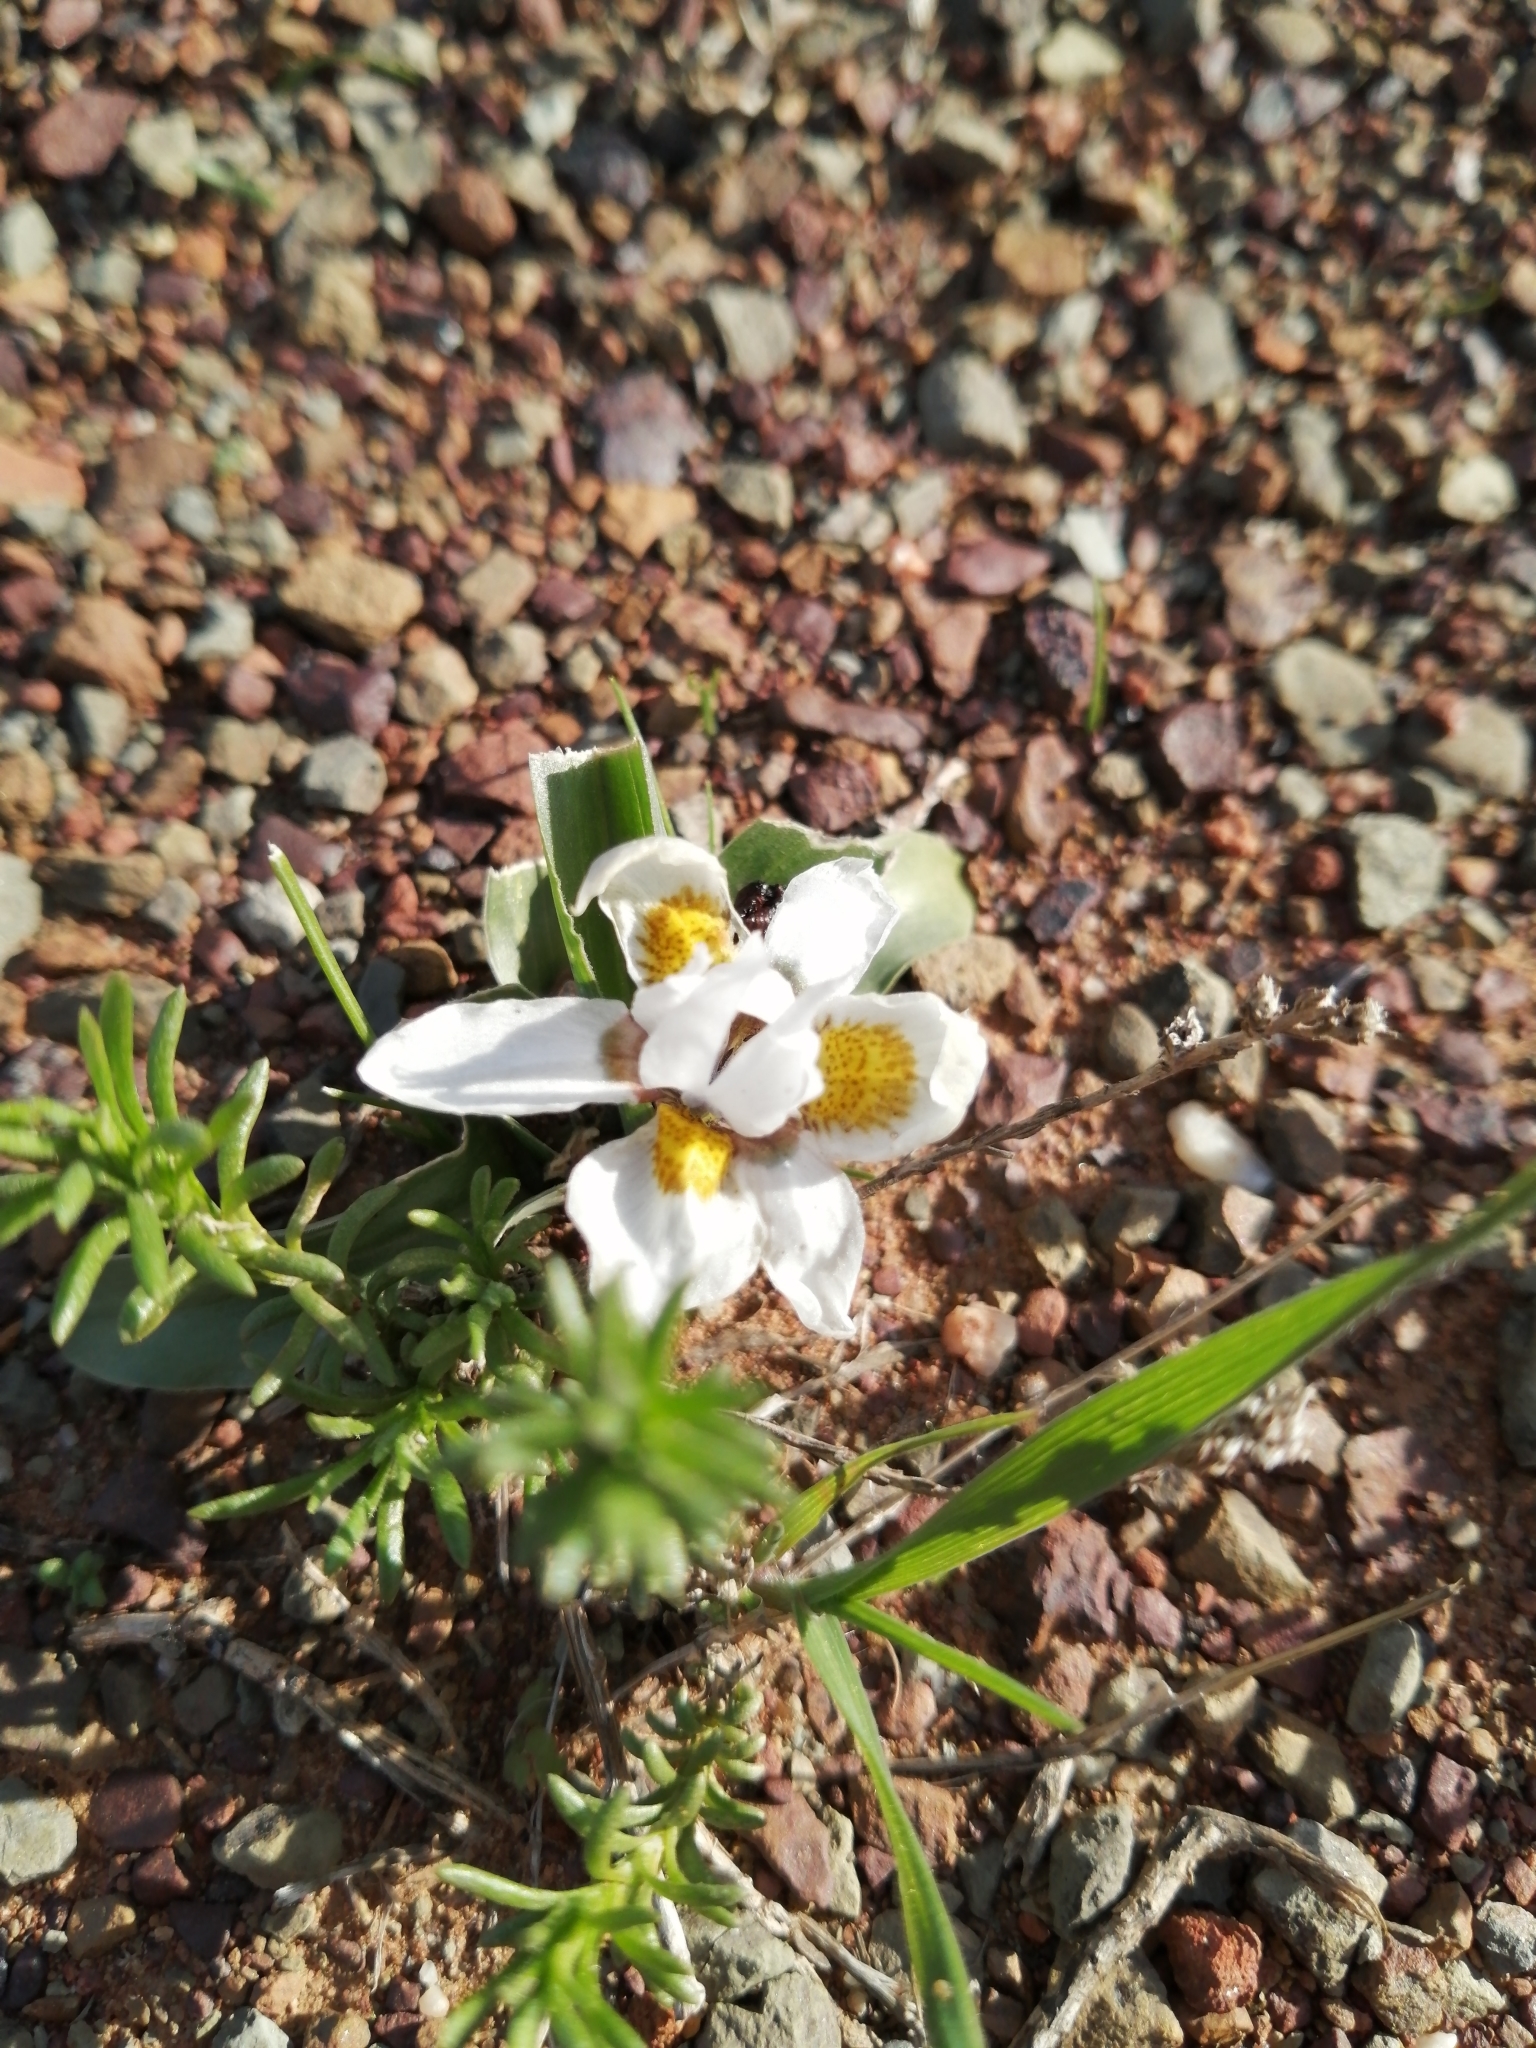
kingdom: Plantae
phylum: Tracheophyta
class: Liliopsida
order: Asparagales
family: Iridaceae
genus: Moraea
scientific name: Moraea falcifolia
